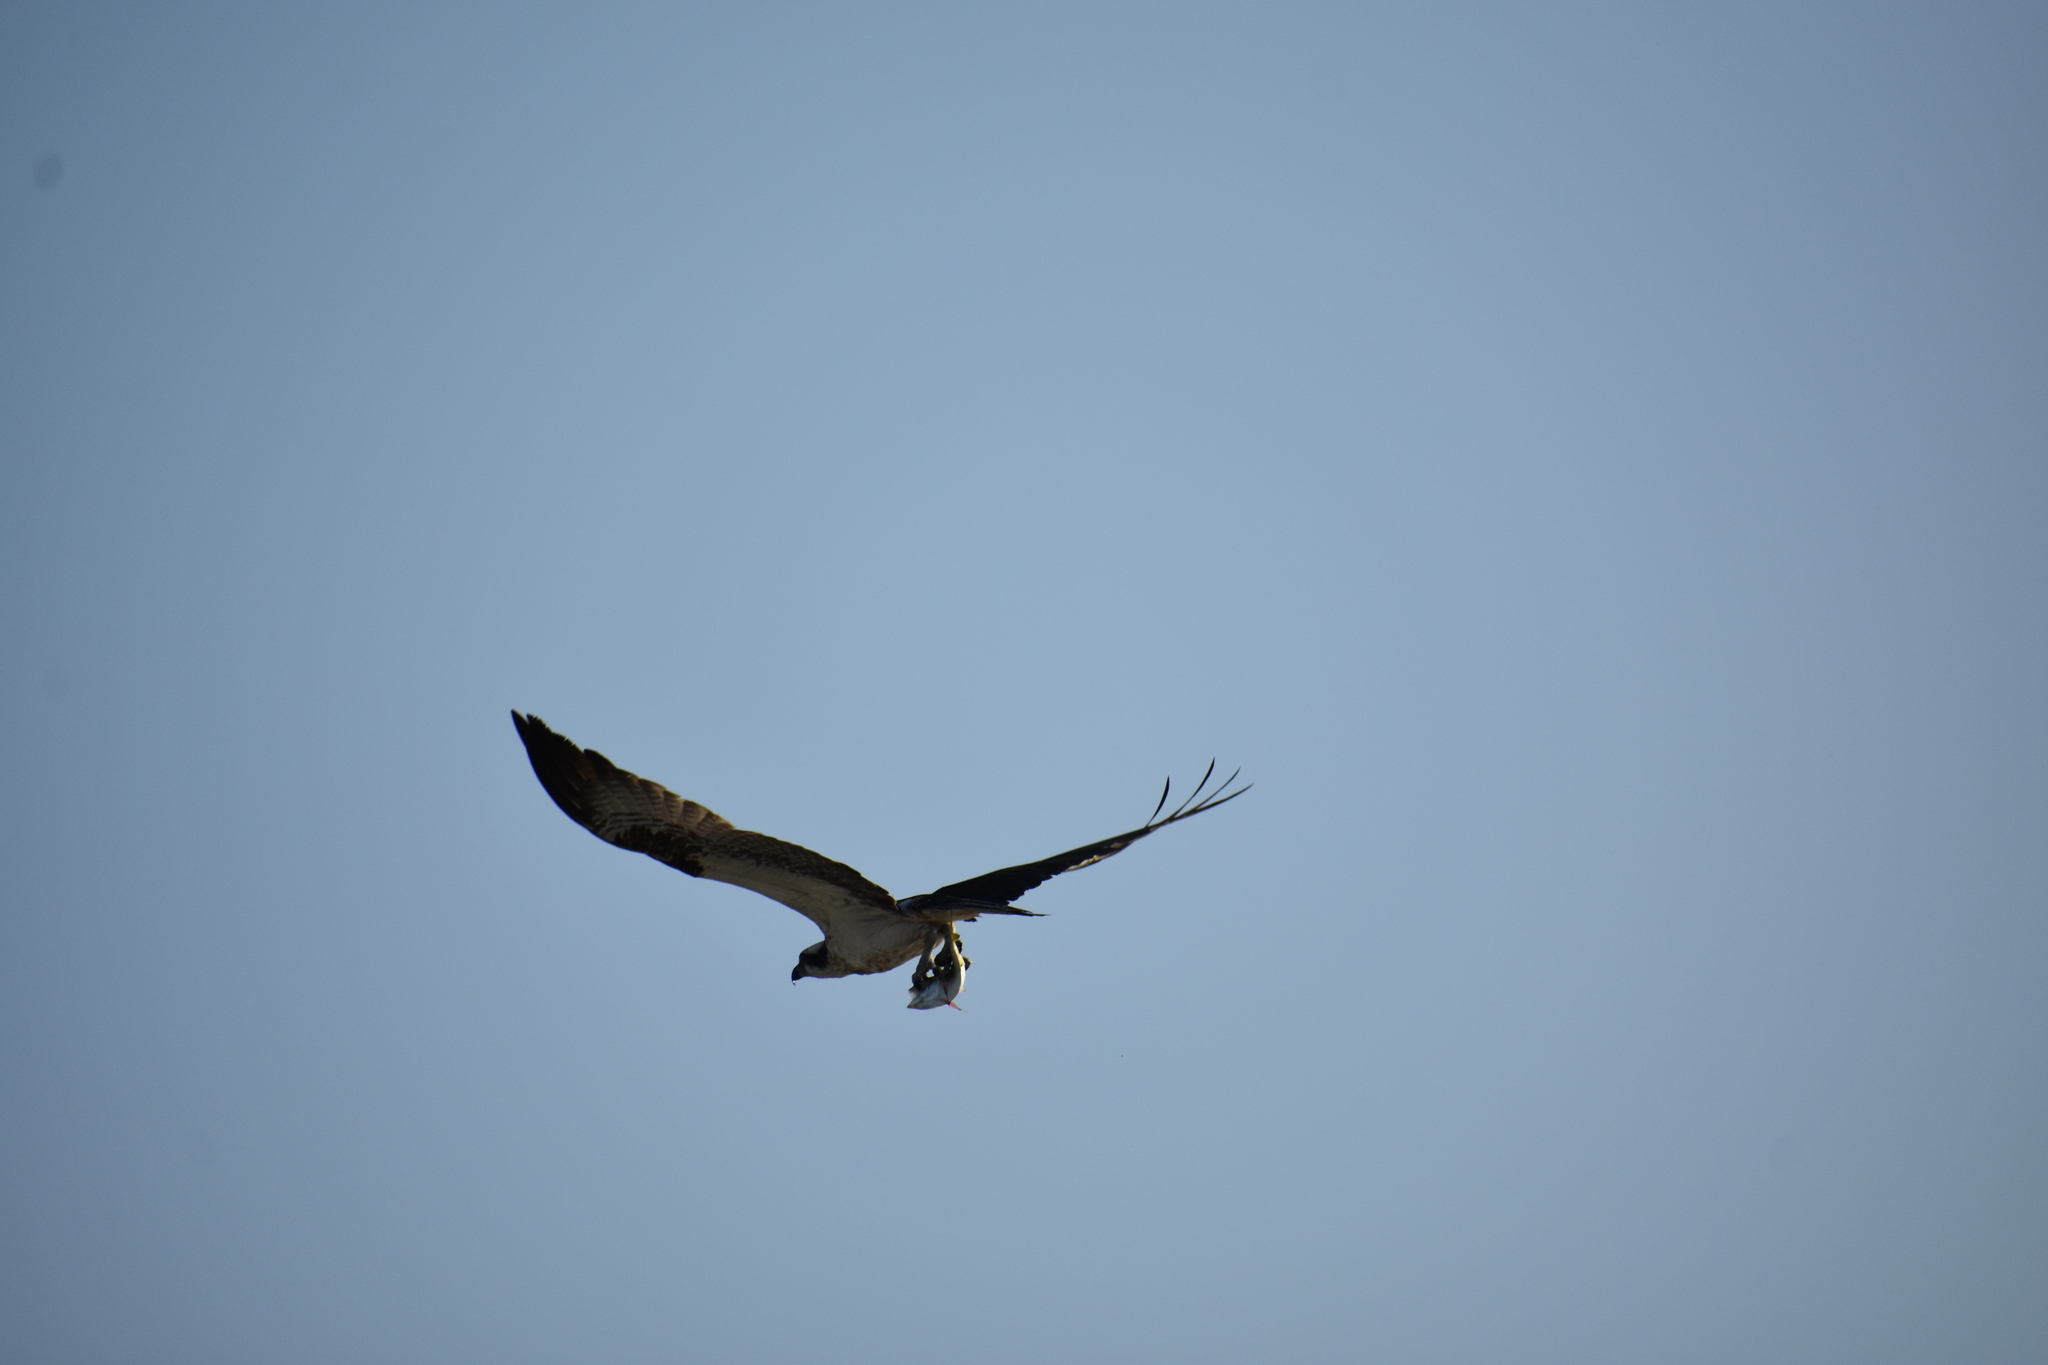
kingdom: Animalia
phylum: Chordata
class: Aves
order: Accipitriformes
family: Pandionidae
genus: Pandion
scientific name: Pandion haliaetus
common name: Osprey
